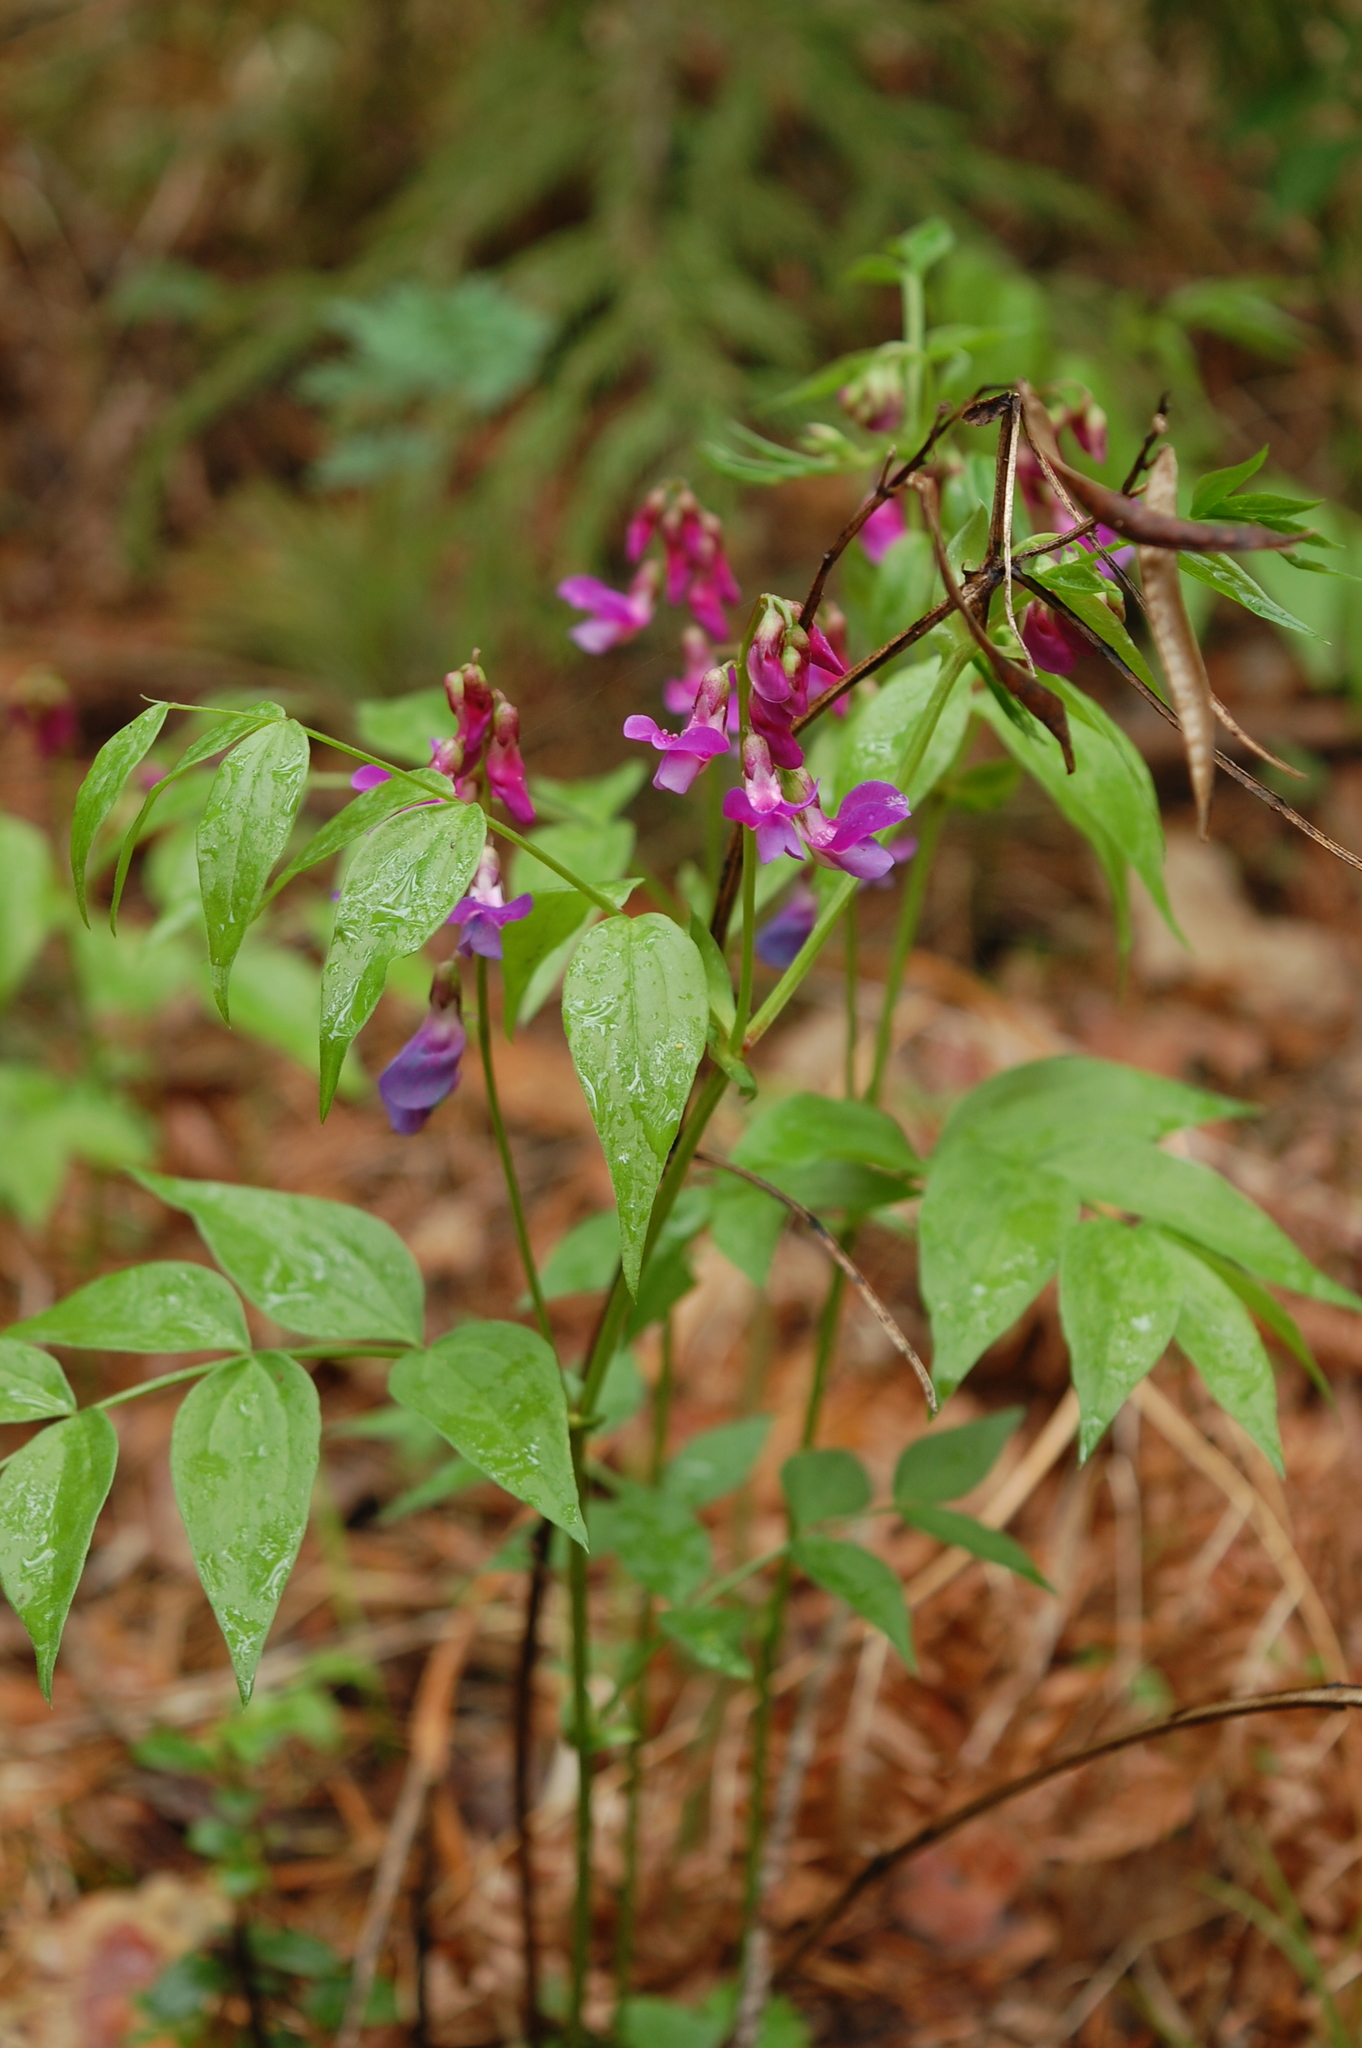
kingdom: Plantae
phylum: Tracheophyta
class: Magnoliopsida
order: Fabales
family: Fabaceae
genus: Lathyrus
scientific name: Lathyrus vernus
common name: Spring pea
